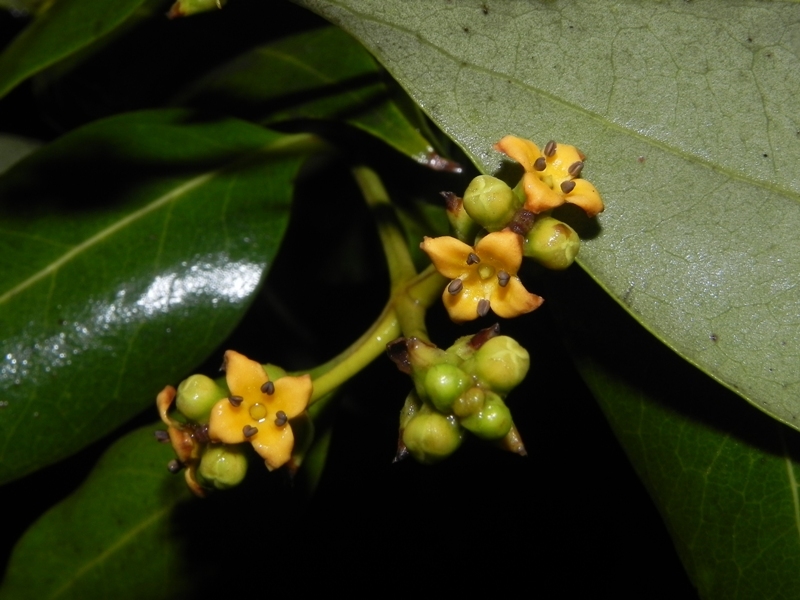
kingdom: Plantae
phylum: Tracheophyta
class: Magnoliopsida
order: Lamiales
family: Acanthaceae
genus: Avicennia
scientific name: Avicennia marina
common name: Gray mangrove
